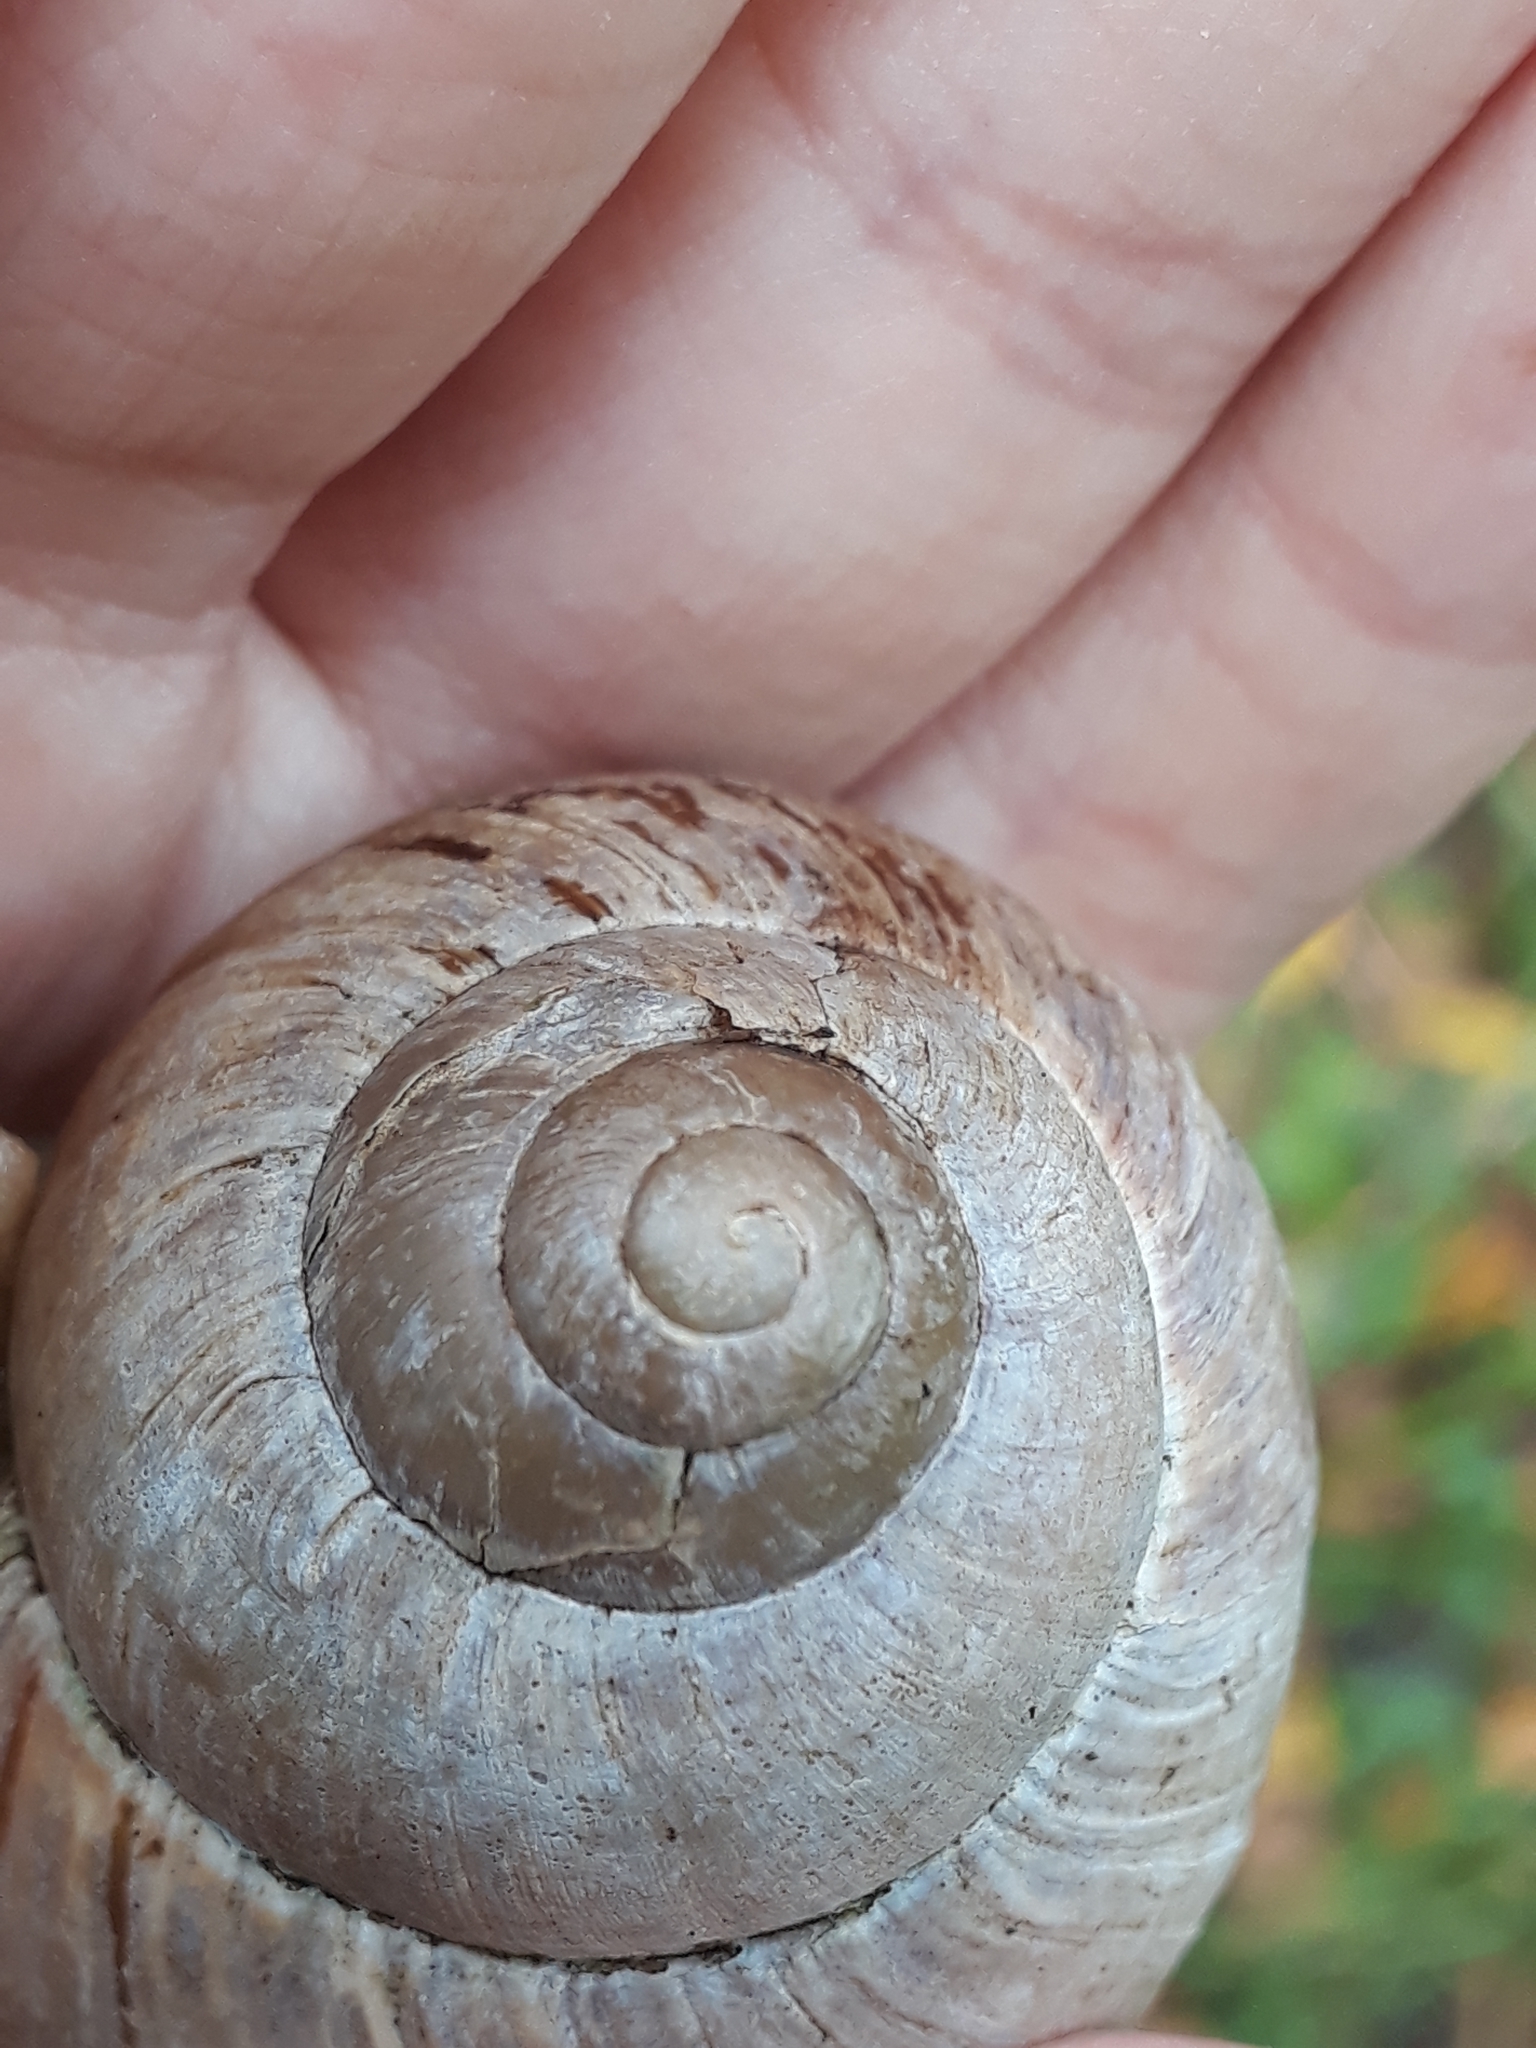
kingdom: Animalia
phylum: Mollusca
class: Gastropoda
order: Stylommatophora
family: Helicidae
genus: Helix
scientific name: Helix pomatia
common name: Roman snail
